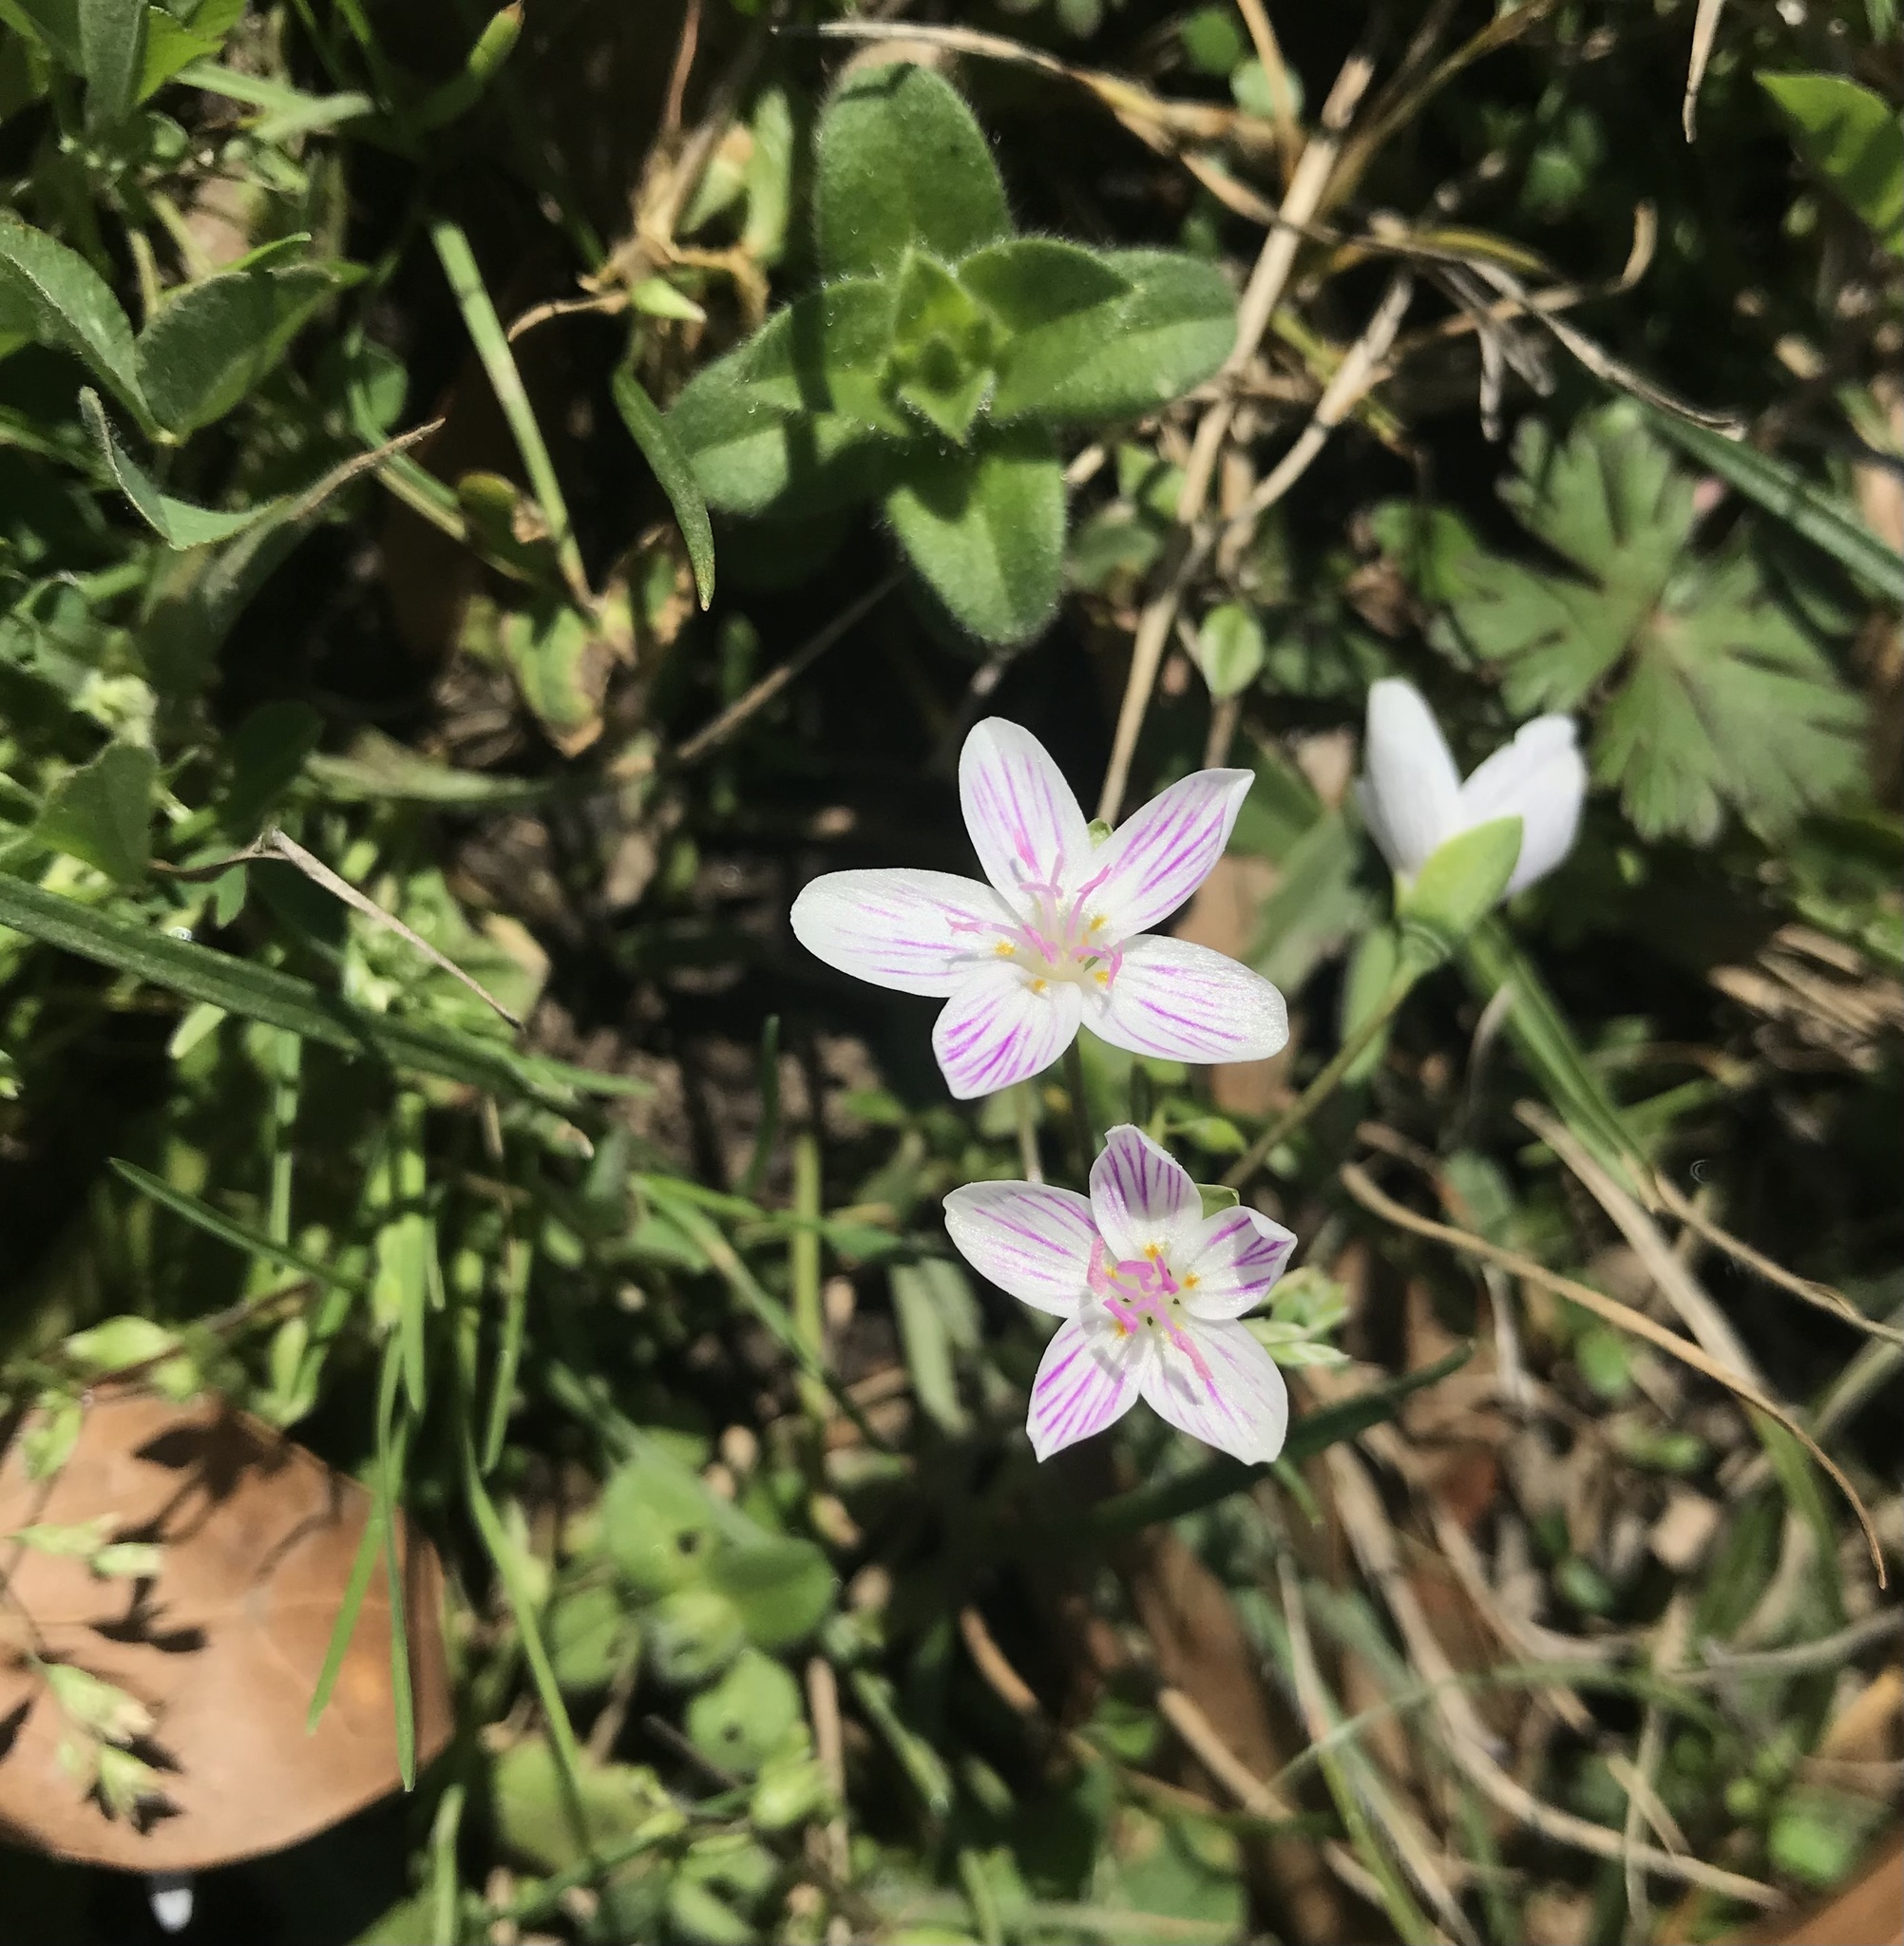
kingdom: Plantae
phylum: Tracheophyta
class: Magnoliopsida
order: Caryophyllales
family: Montiaceae
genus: Claytonia
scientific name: Claytonia virginica
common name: Virginia springbeauty
